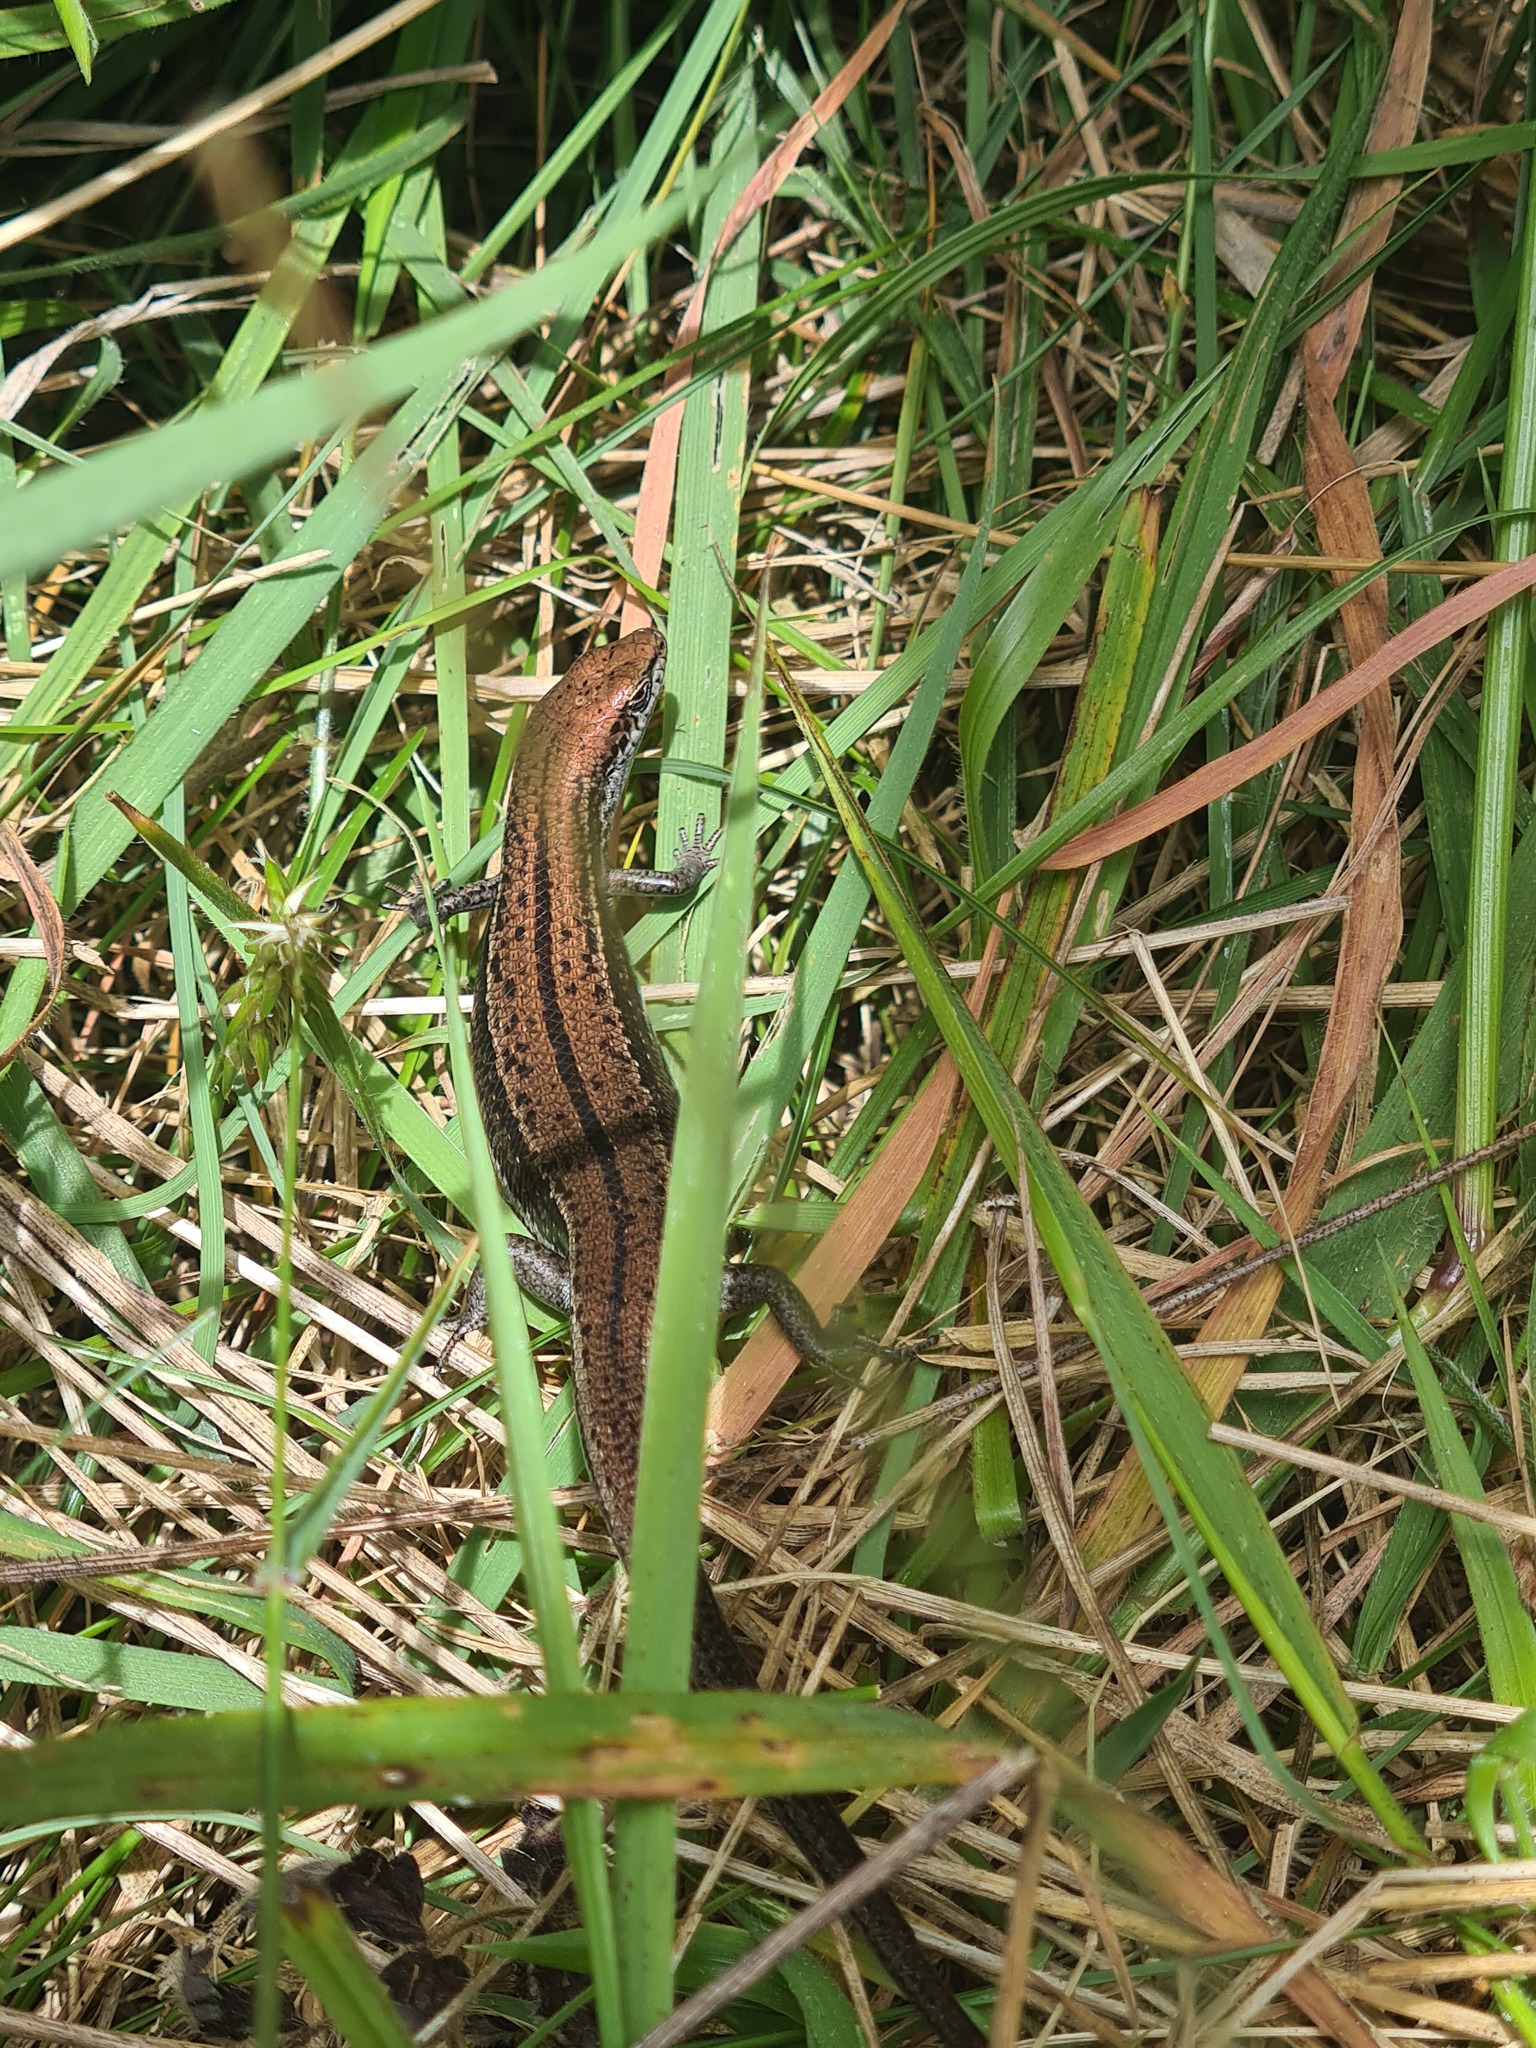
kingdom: Animalia
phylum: Chordata
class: Squamata
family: Scincidae
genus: Pseudemoia
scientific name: Pseudemoia entrecasteauxii
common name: Entrecasteaux's skink
